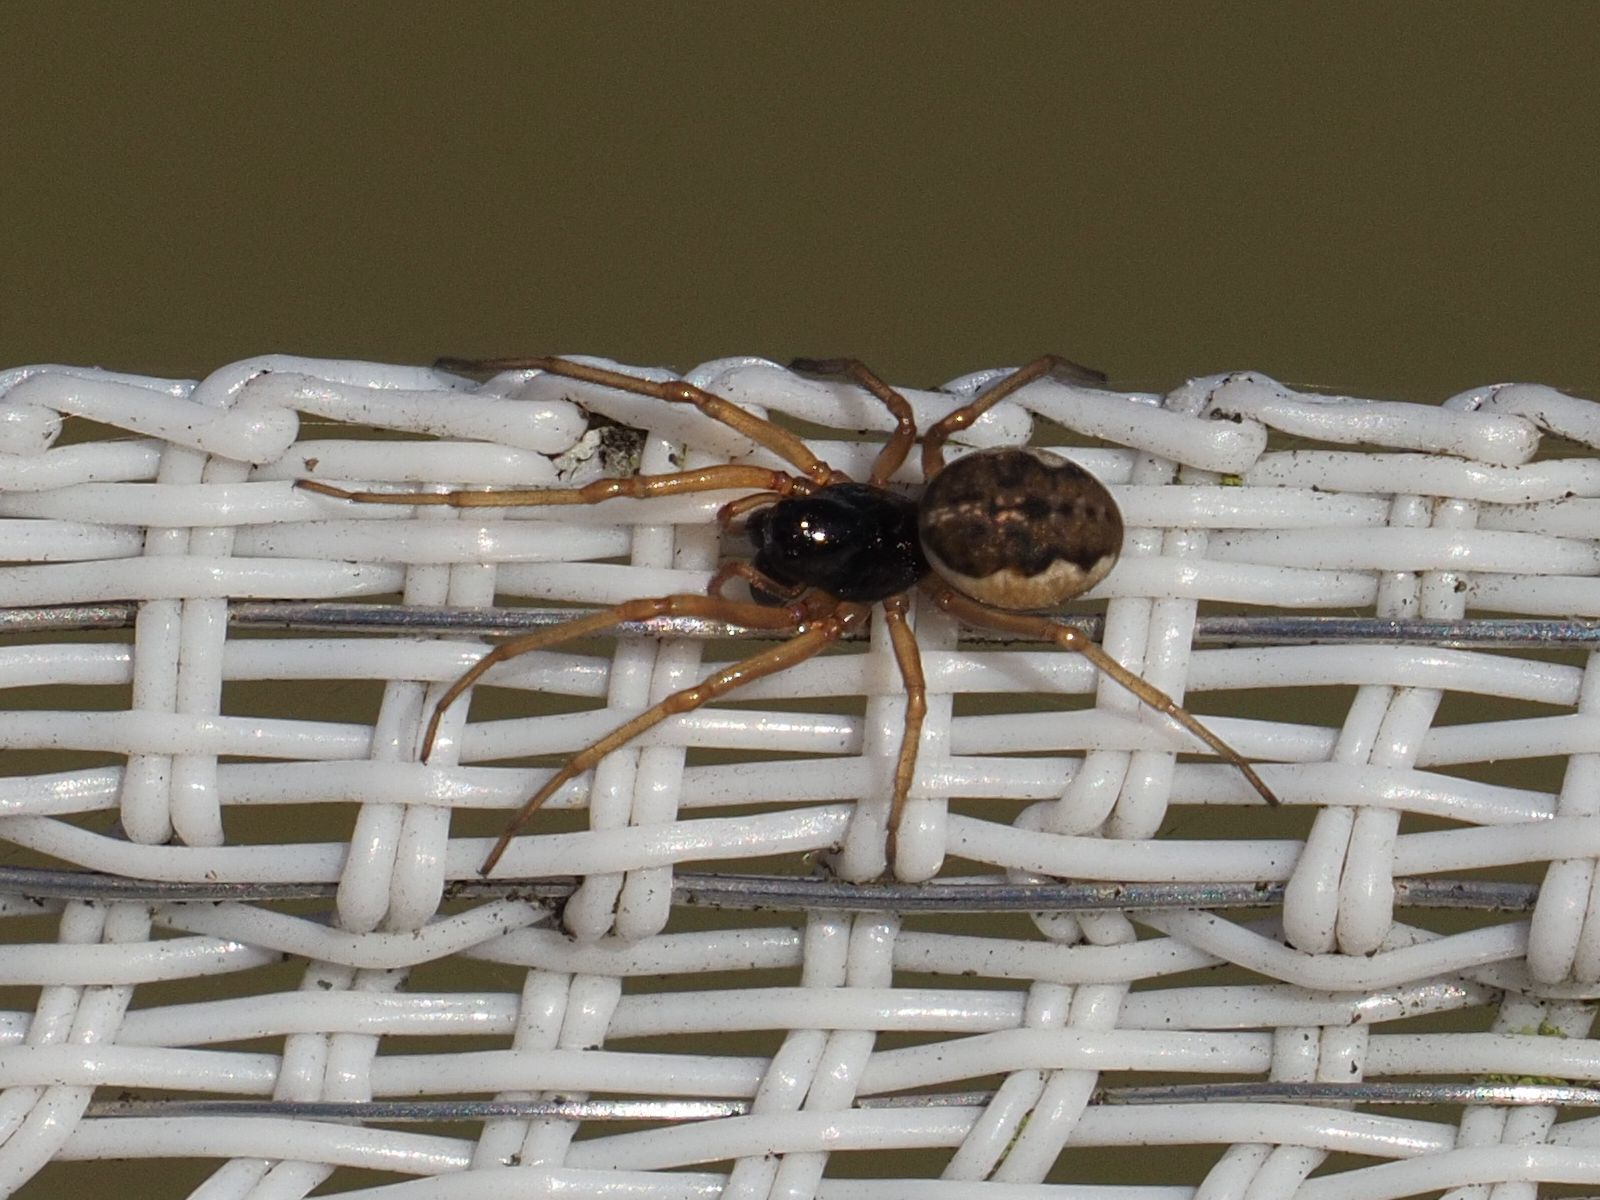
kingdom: Animalia
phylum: Arthropoda
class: Arachnida
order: Araneae
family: Tetragnathidae
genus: Pachygnatha
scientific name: Pachygnatha degeeri
